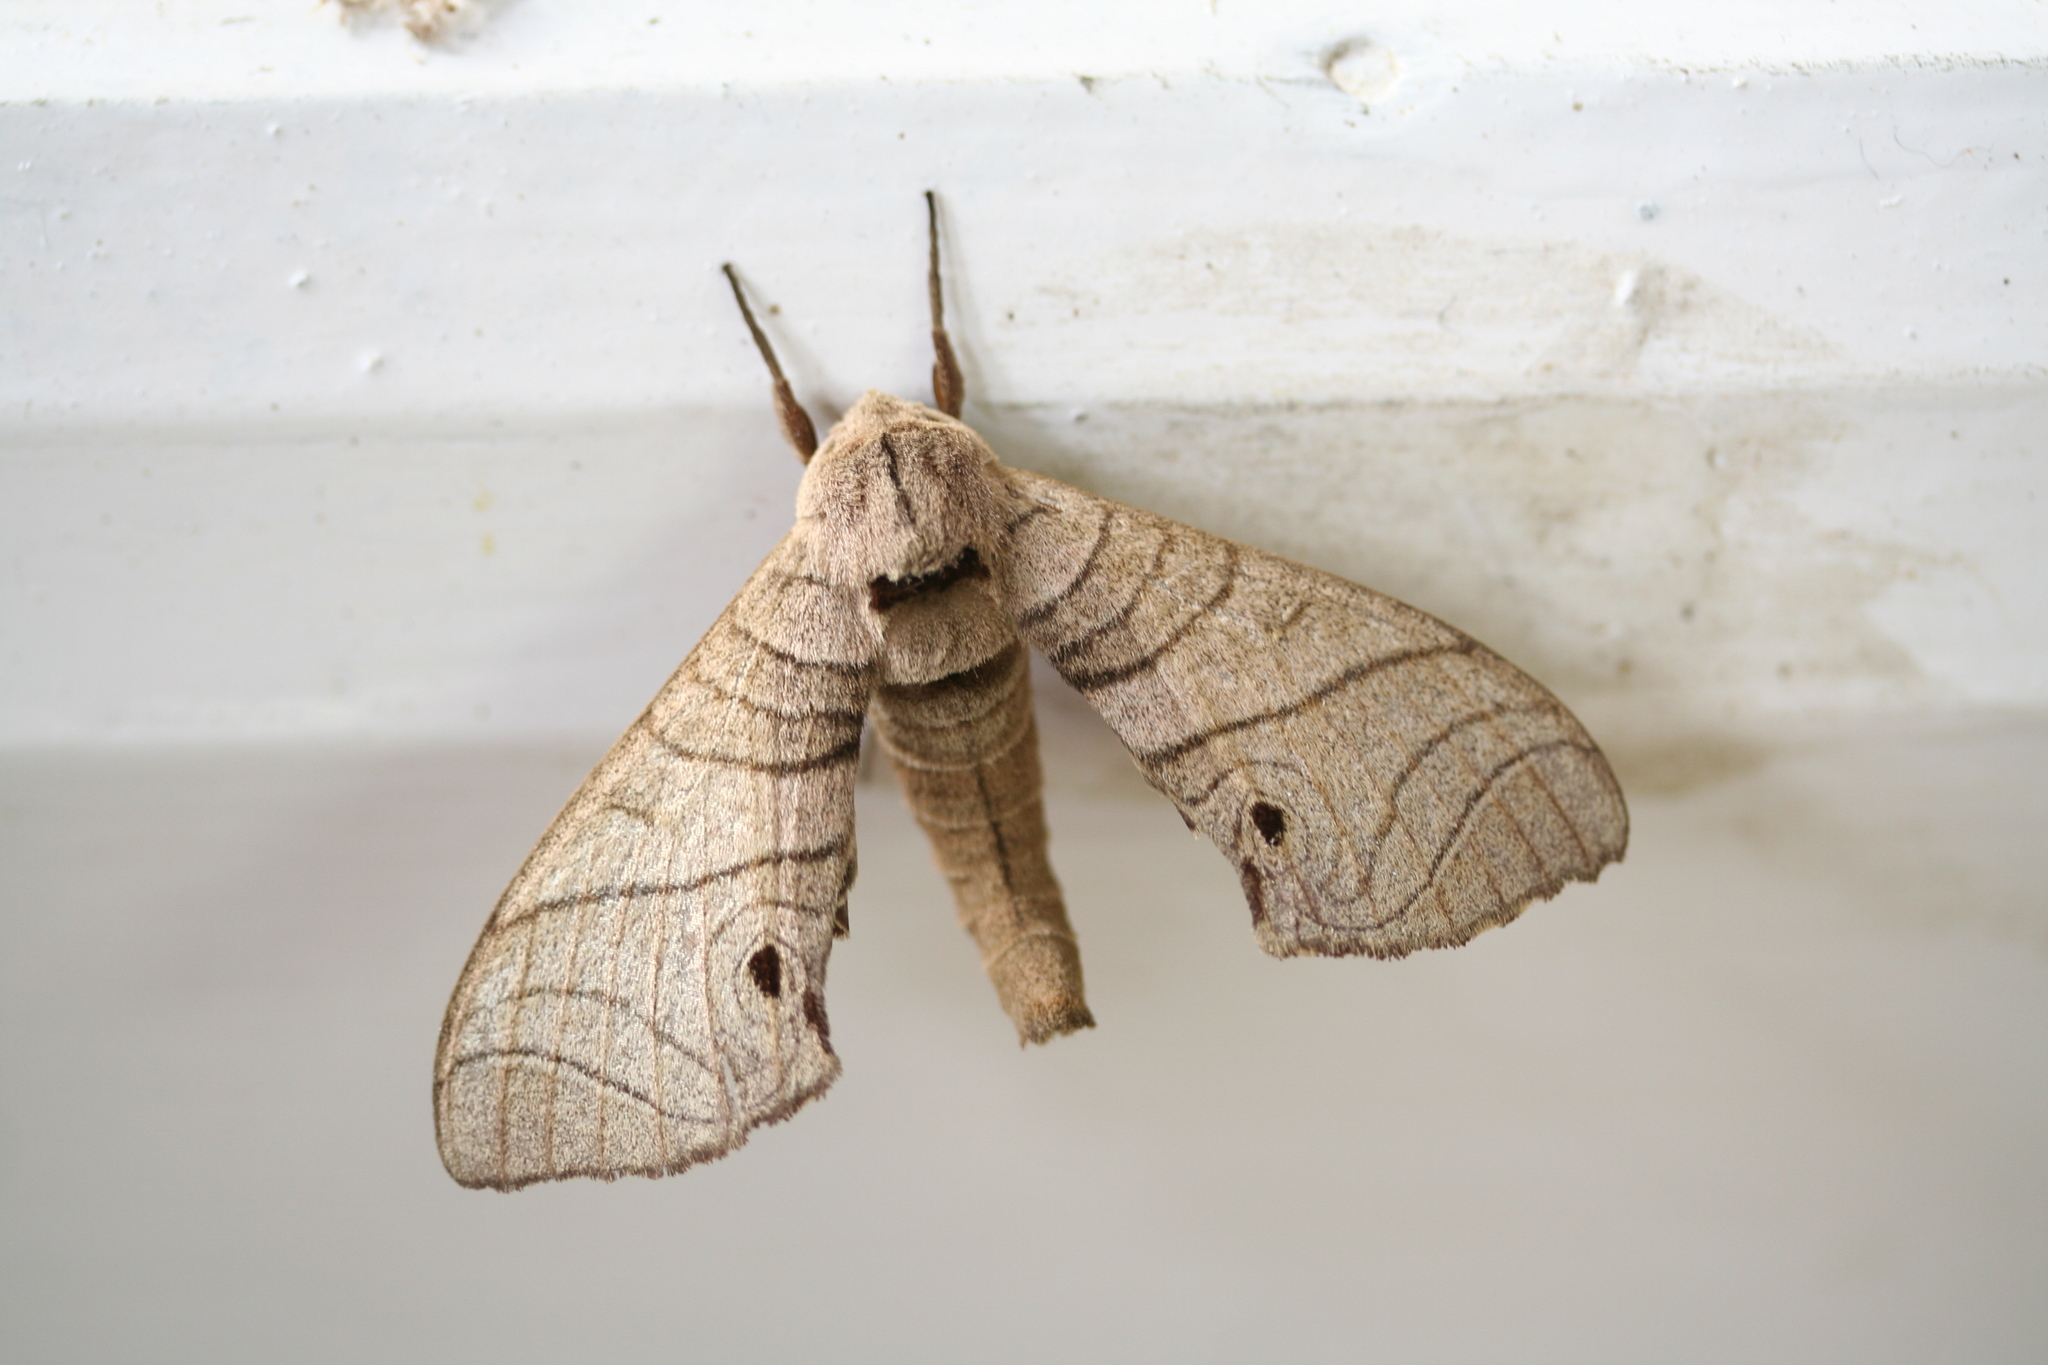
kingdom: Animalia
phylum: Arthropoda
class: Insecta
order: Lepidoptera
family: Sphingidae
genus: Gynoeryx
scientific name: Gynoeryx meander
